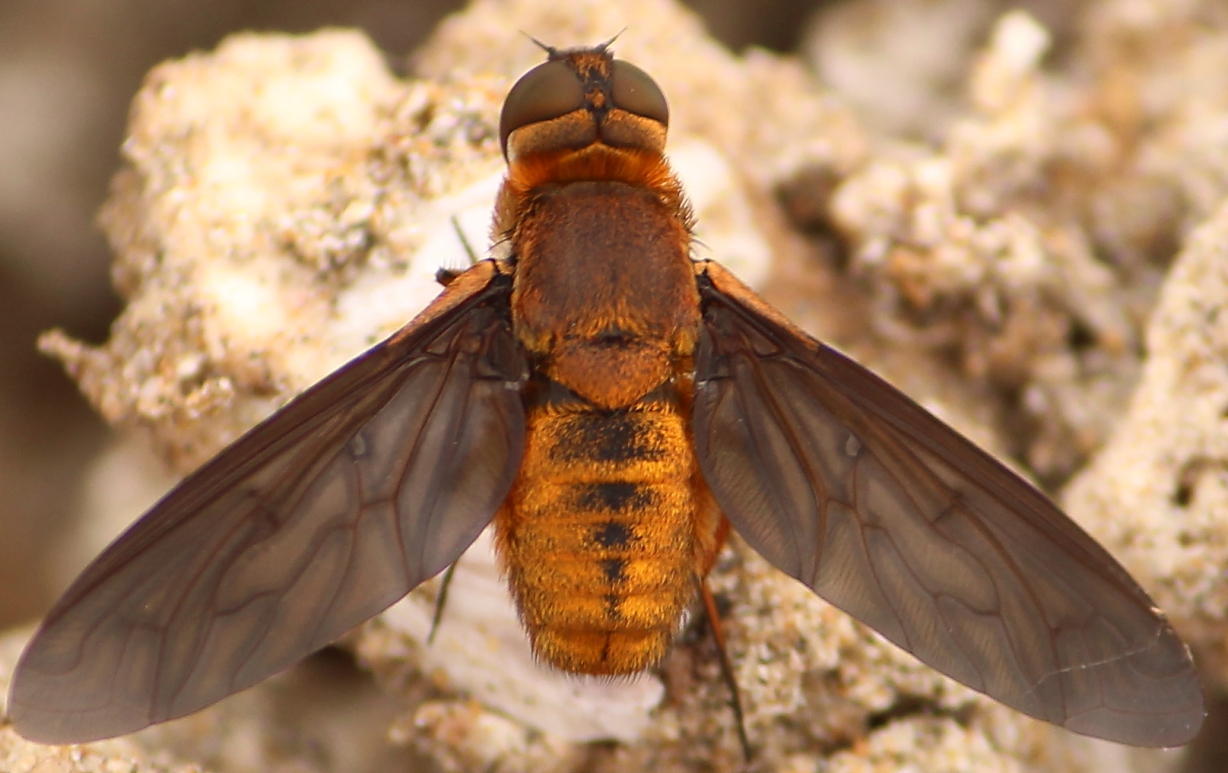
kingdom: Animalia
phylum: Arthropoda
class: Insecta
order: Diptera
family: Bombyliidae
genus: Euligyra
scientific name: Euligyra
